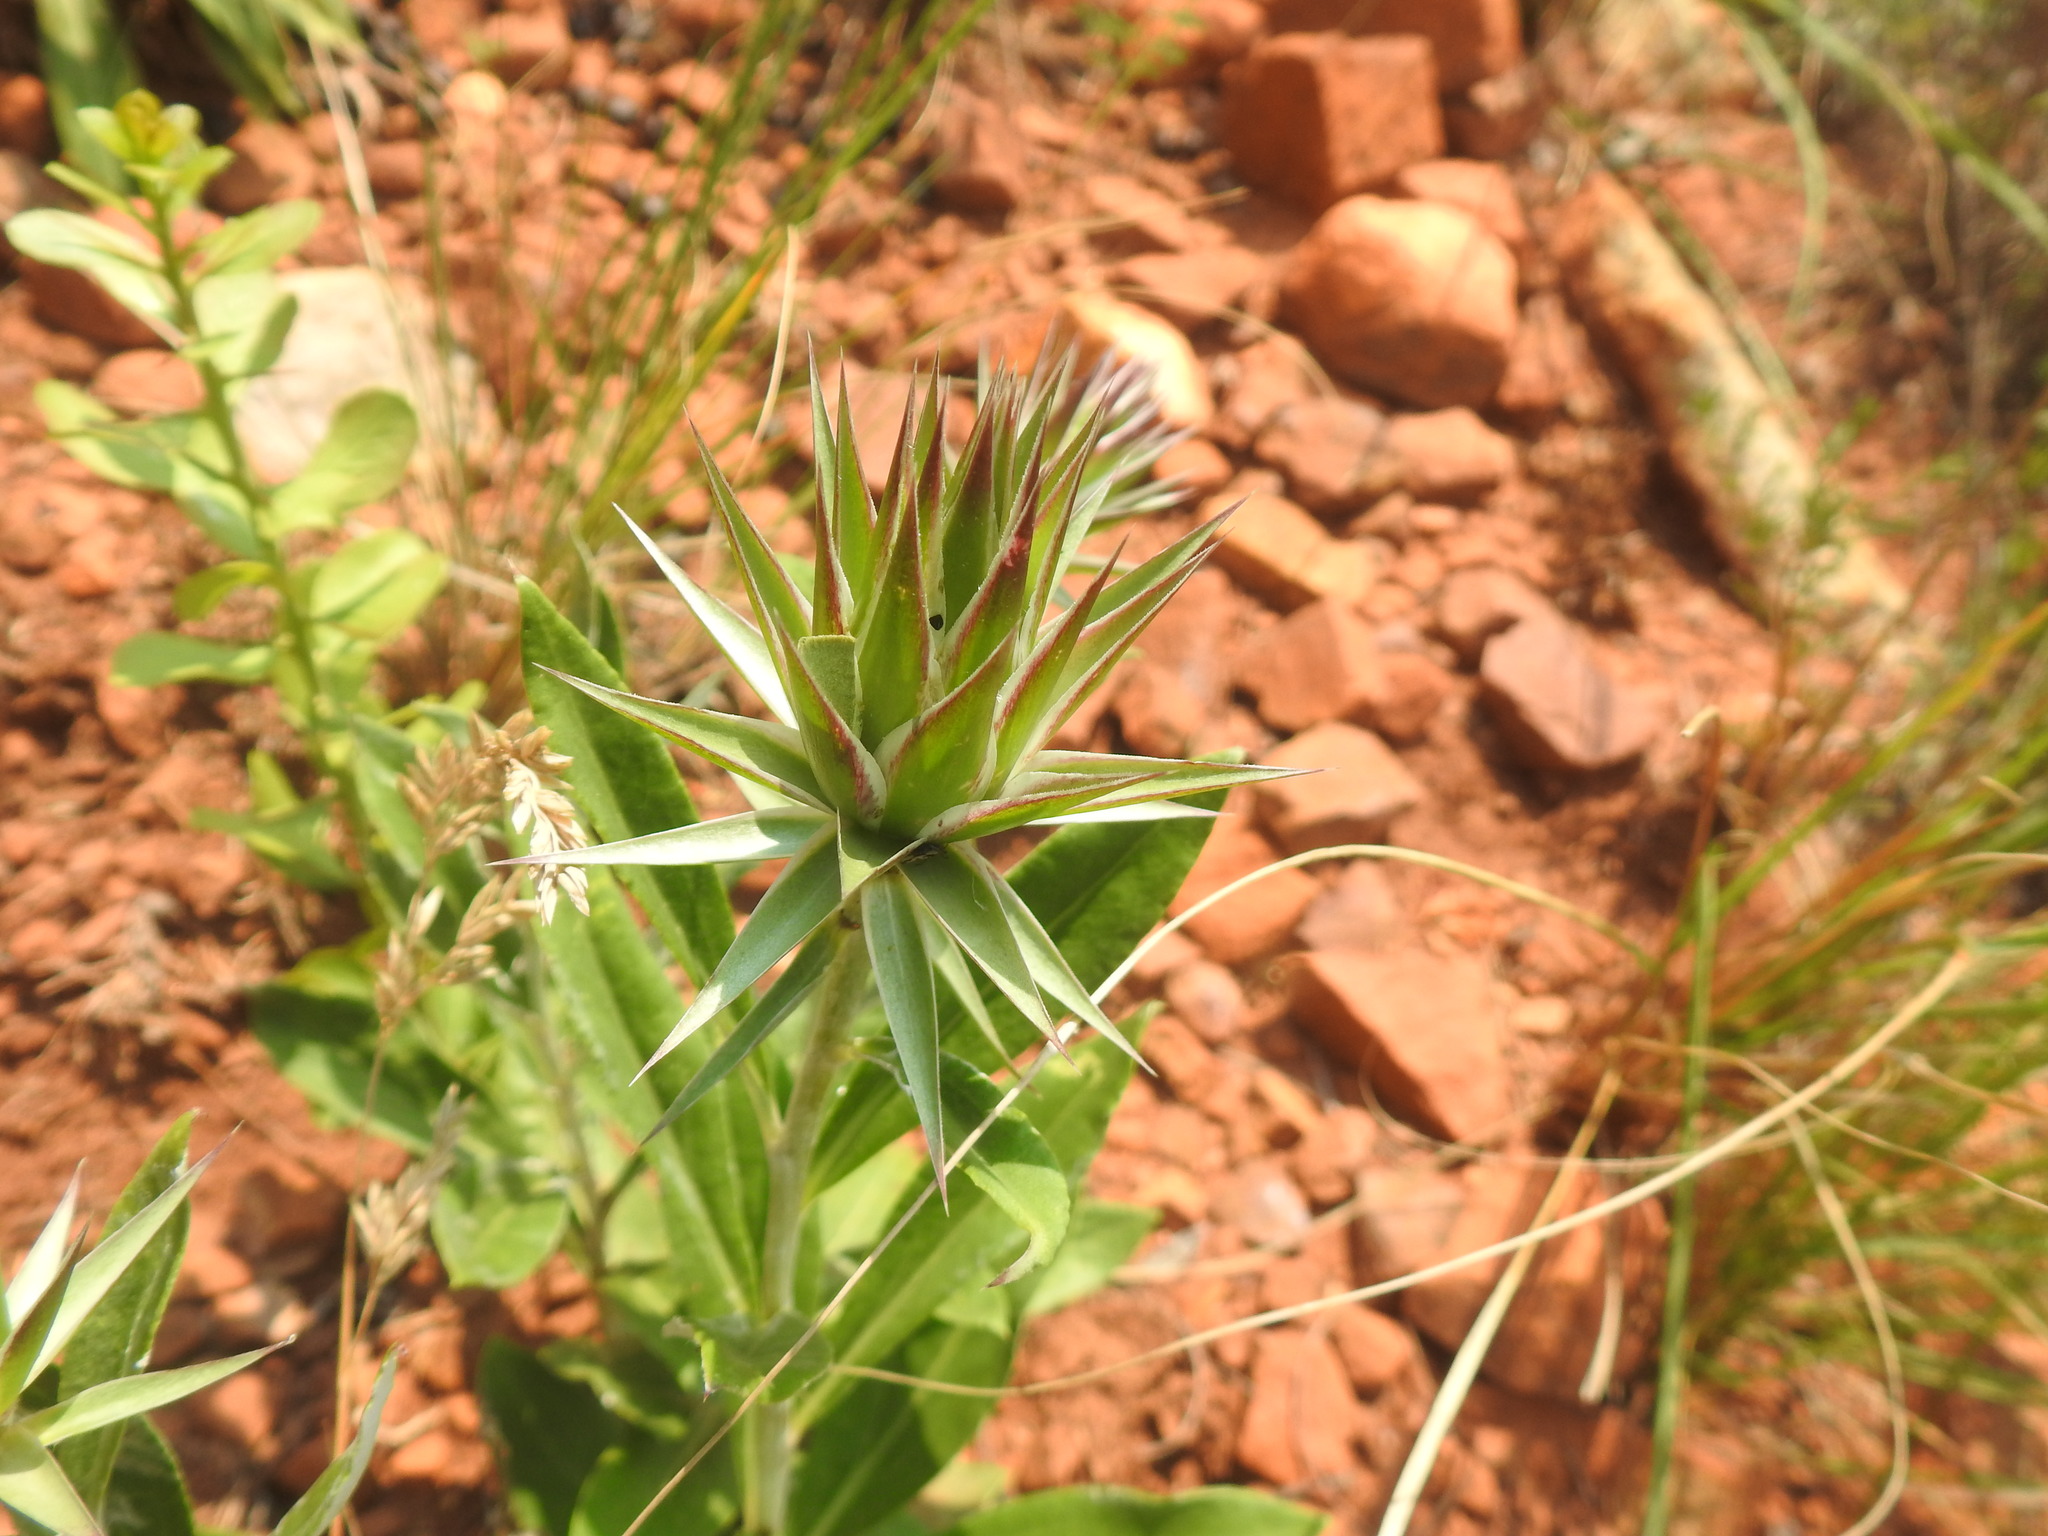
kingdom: Plantae
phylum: Tracheophyta
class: Magnoliopsida
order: Asterales
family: Asteraceae
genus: Macledium
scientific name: Macledium zeyheri
